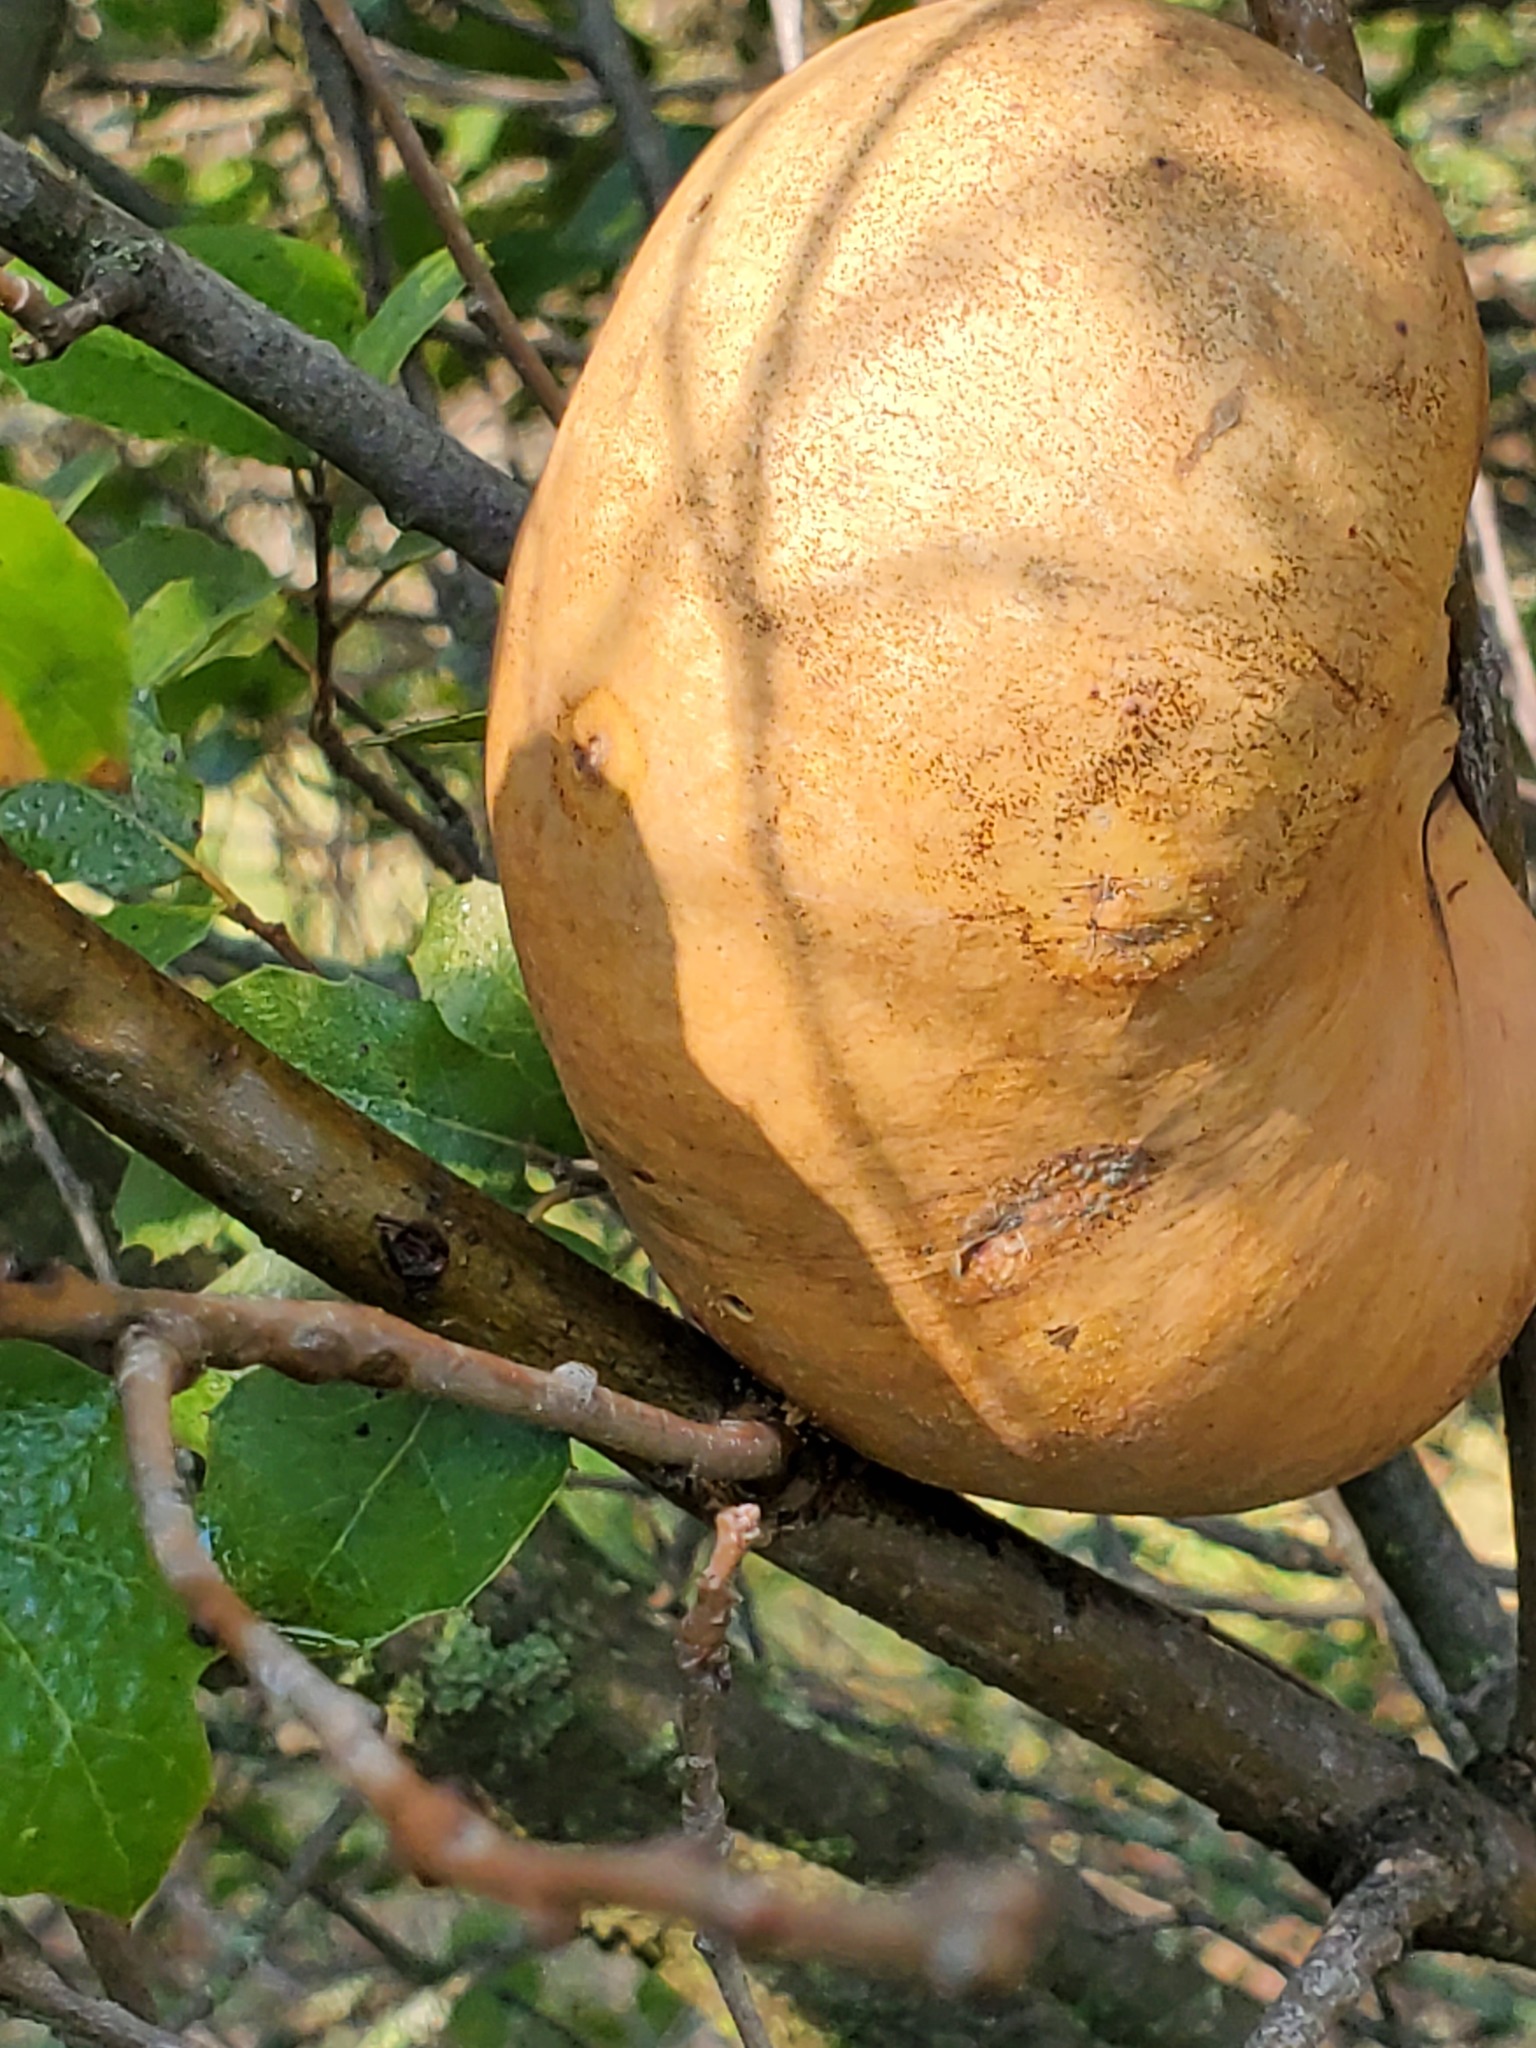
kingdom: Animalia
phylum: Arthropoda
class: Insecta
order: Hymenoptera
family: Cynipidae
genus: Andricus
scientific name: Andricus quercuscalifornicus
